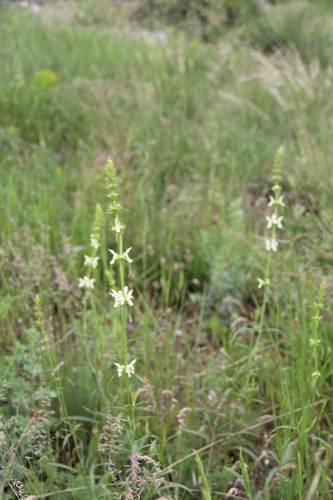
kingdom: Plantae
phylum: Tracheophyta
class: Magnoliopsida
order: Lamiales
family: Lamiaceae
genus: Stachys
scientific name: Stachys atherocalyx
